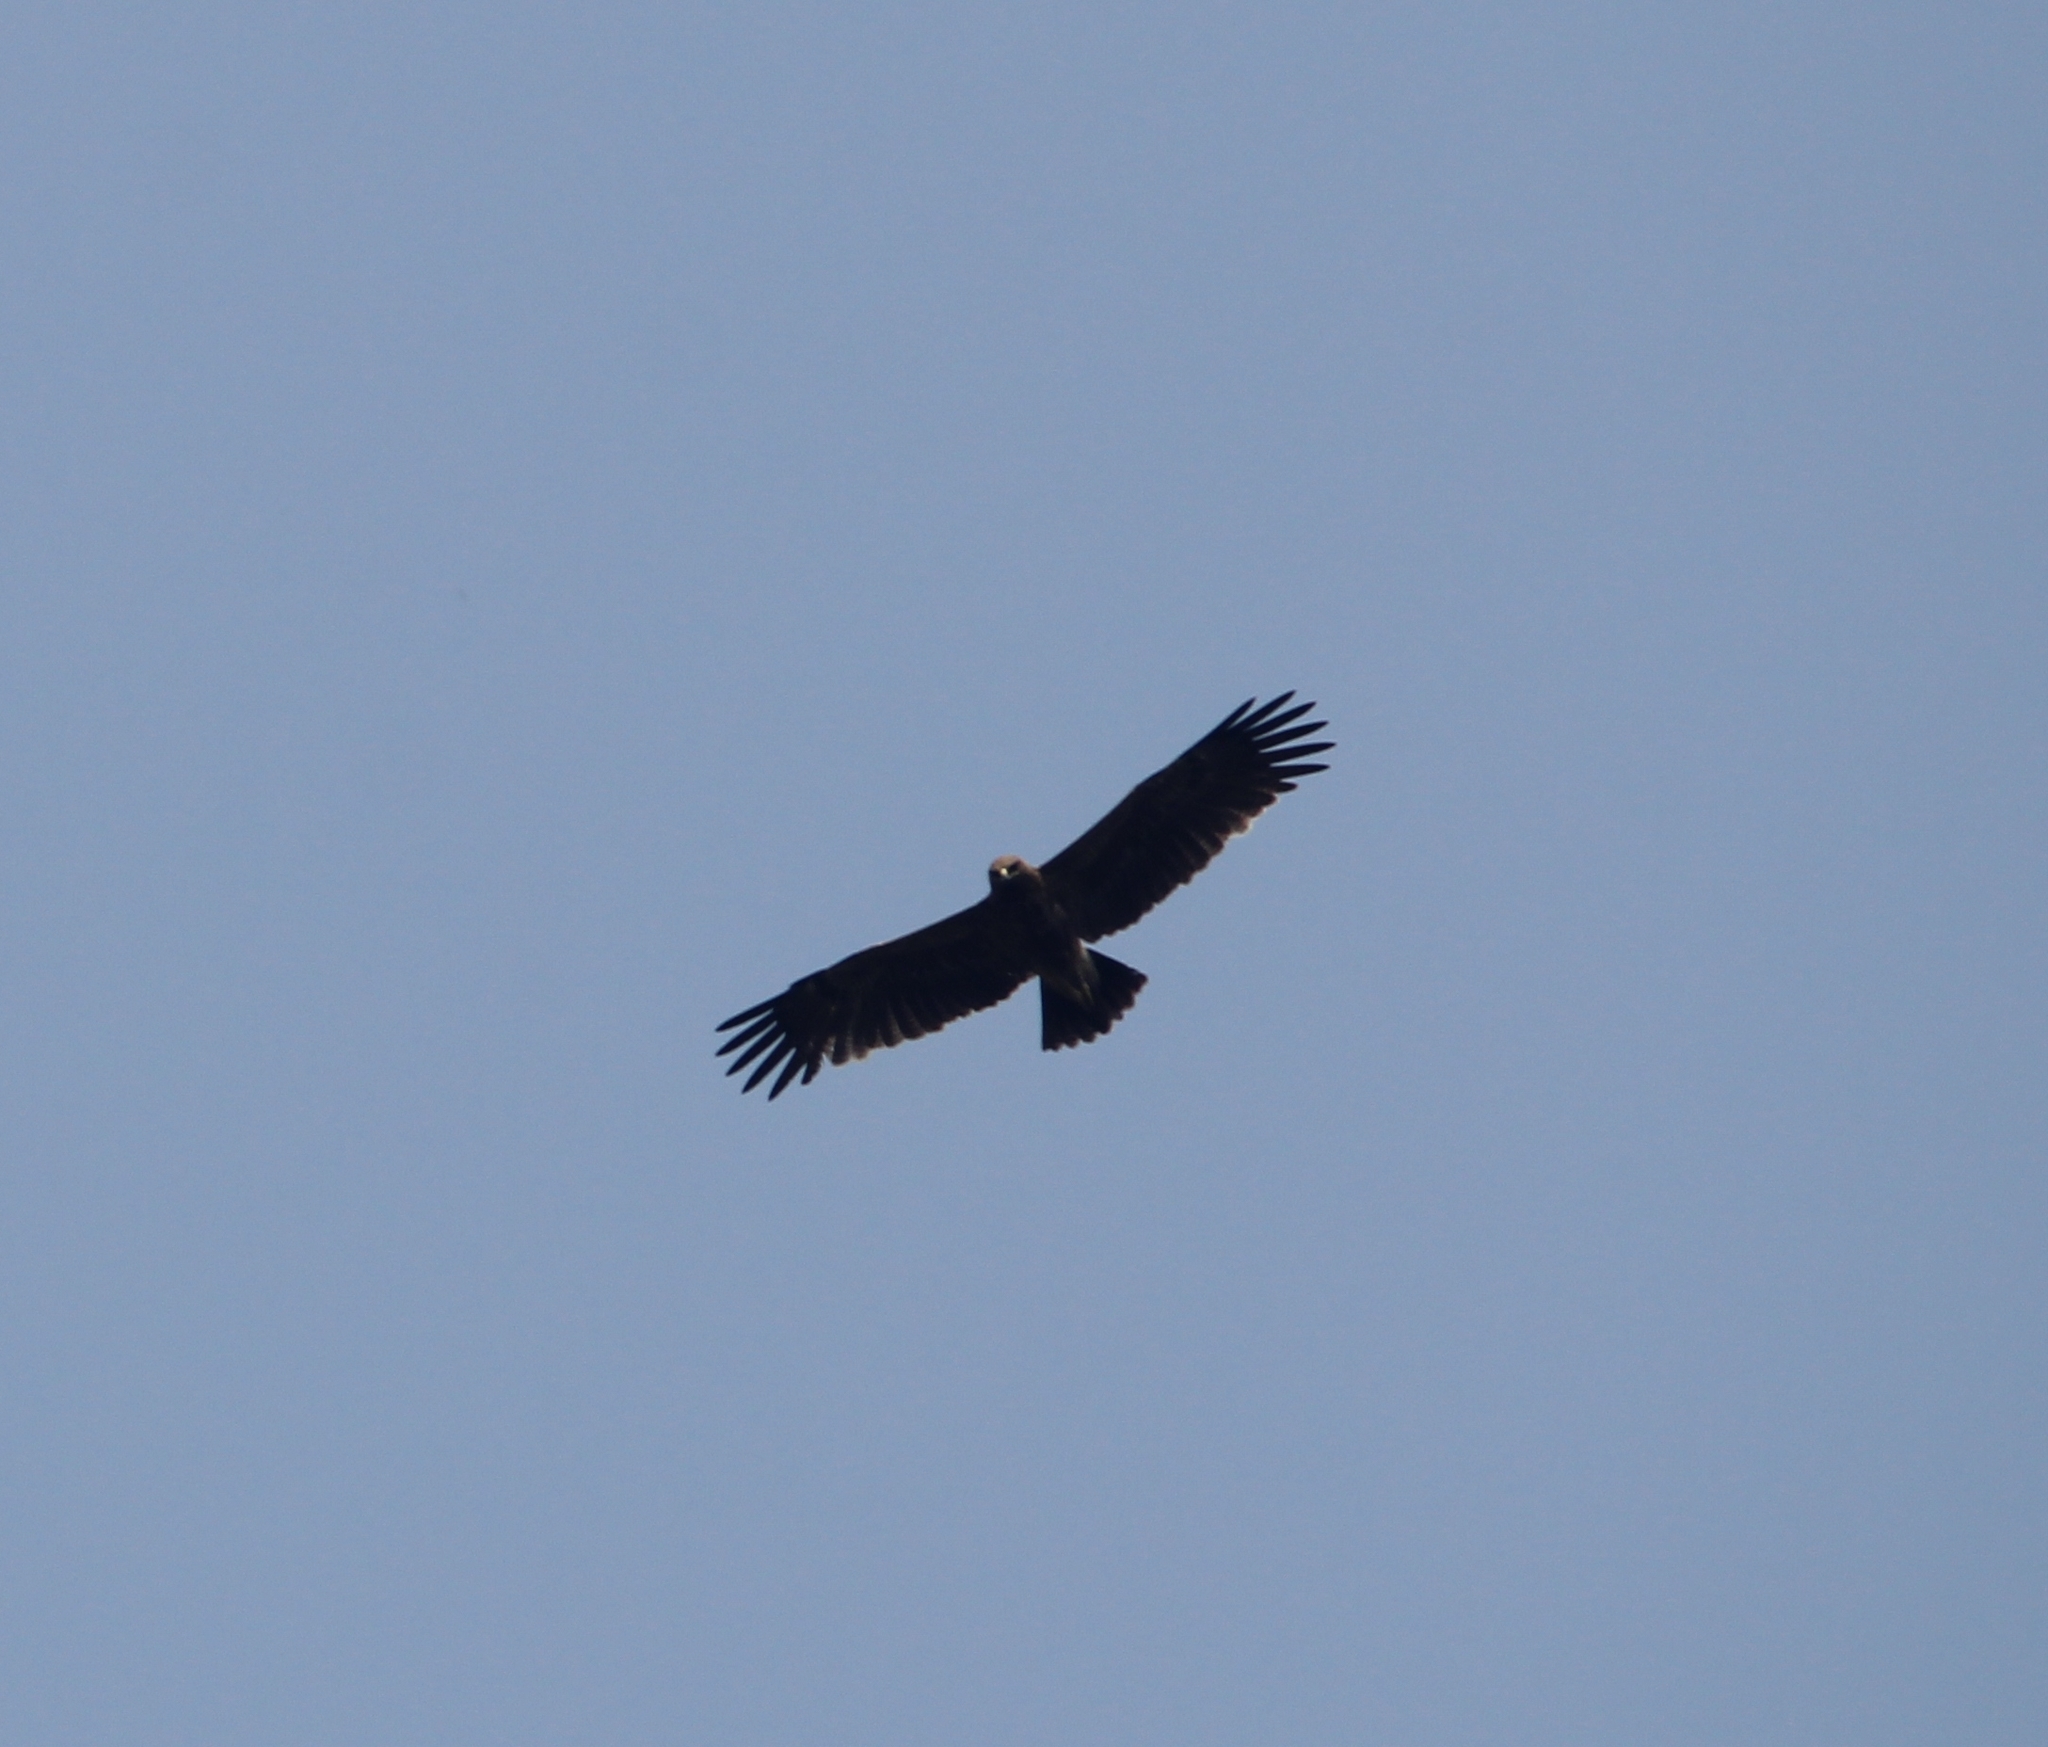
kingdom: Animalia
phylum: Chordata
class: Aves
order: Accipitriformes
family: Accipitridae
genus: Aquila
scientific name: Aquila hastata
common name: Indian spotted eagle
